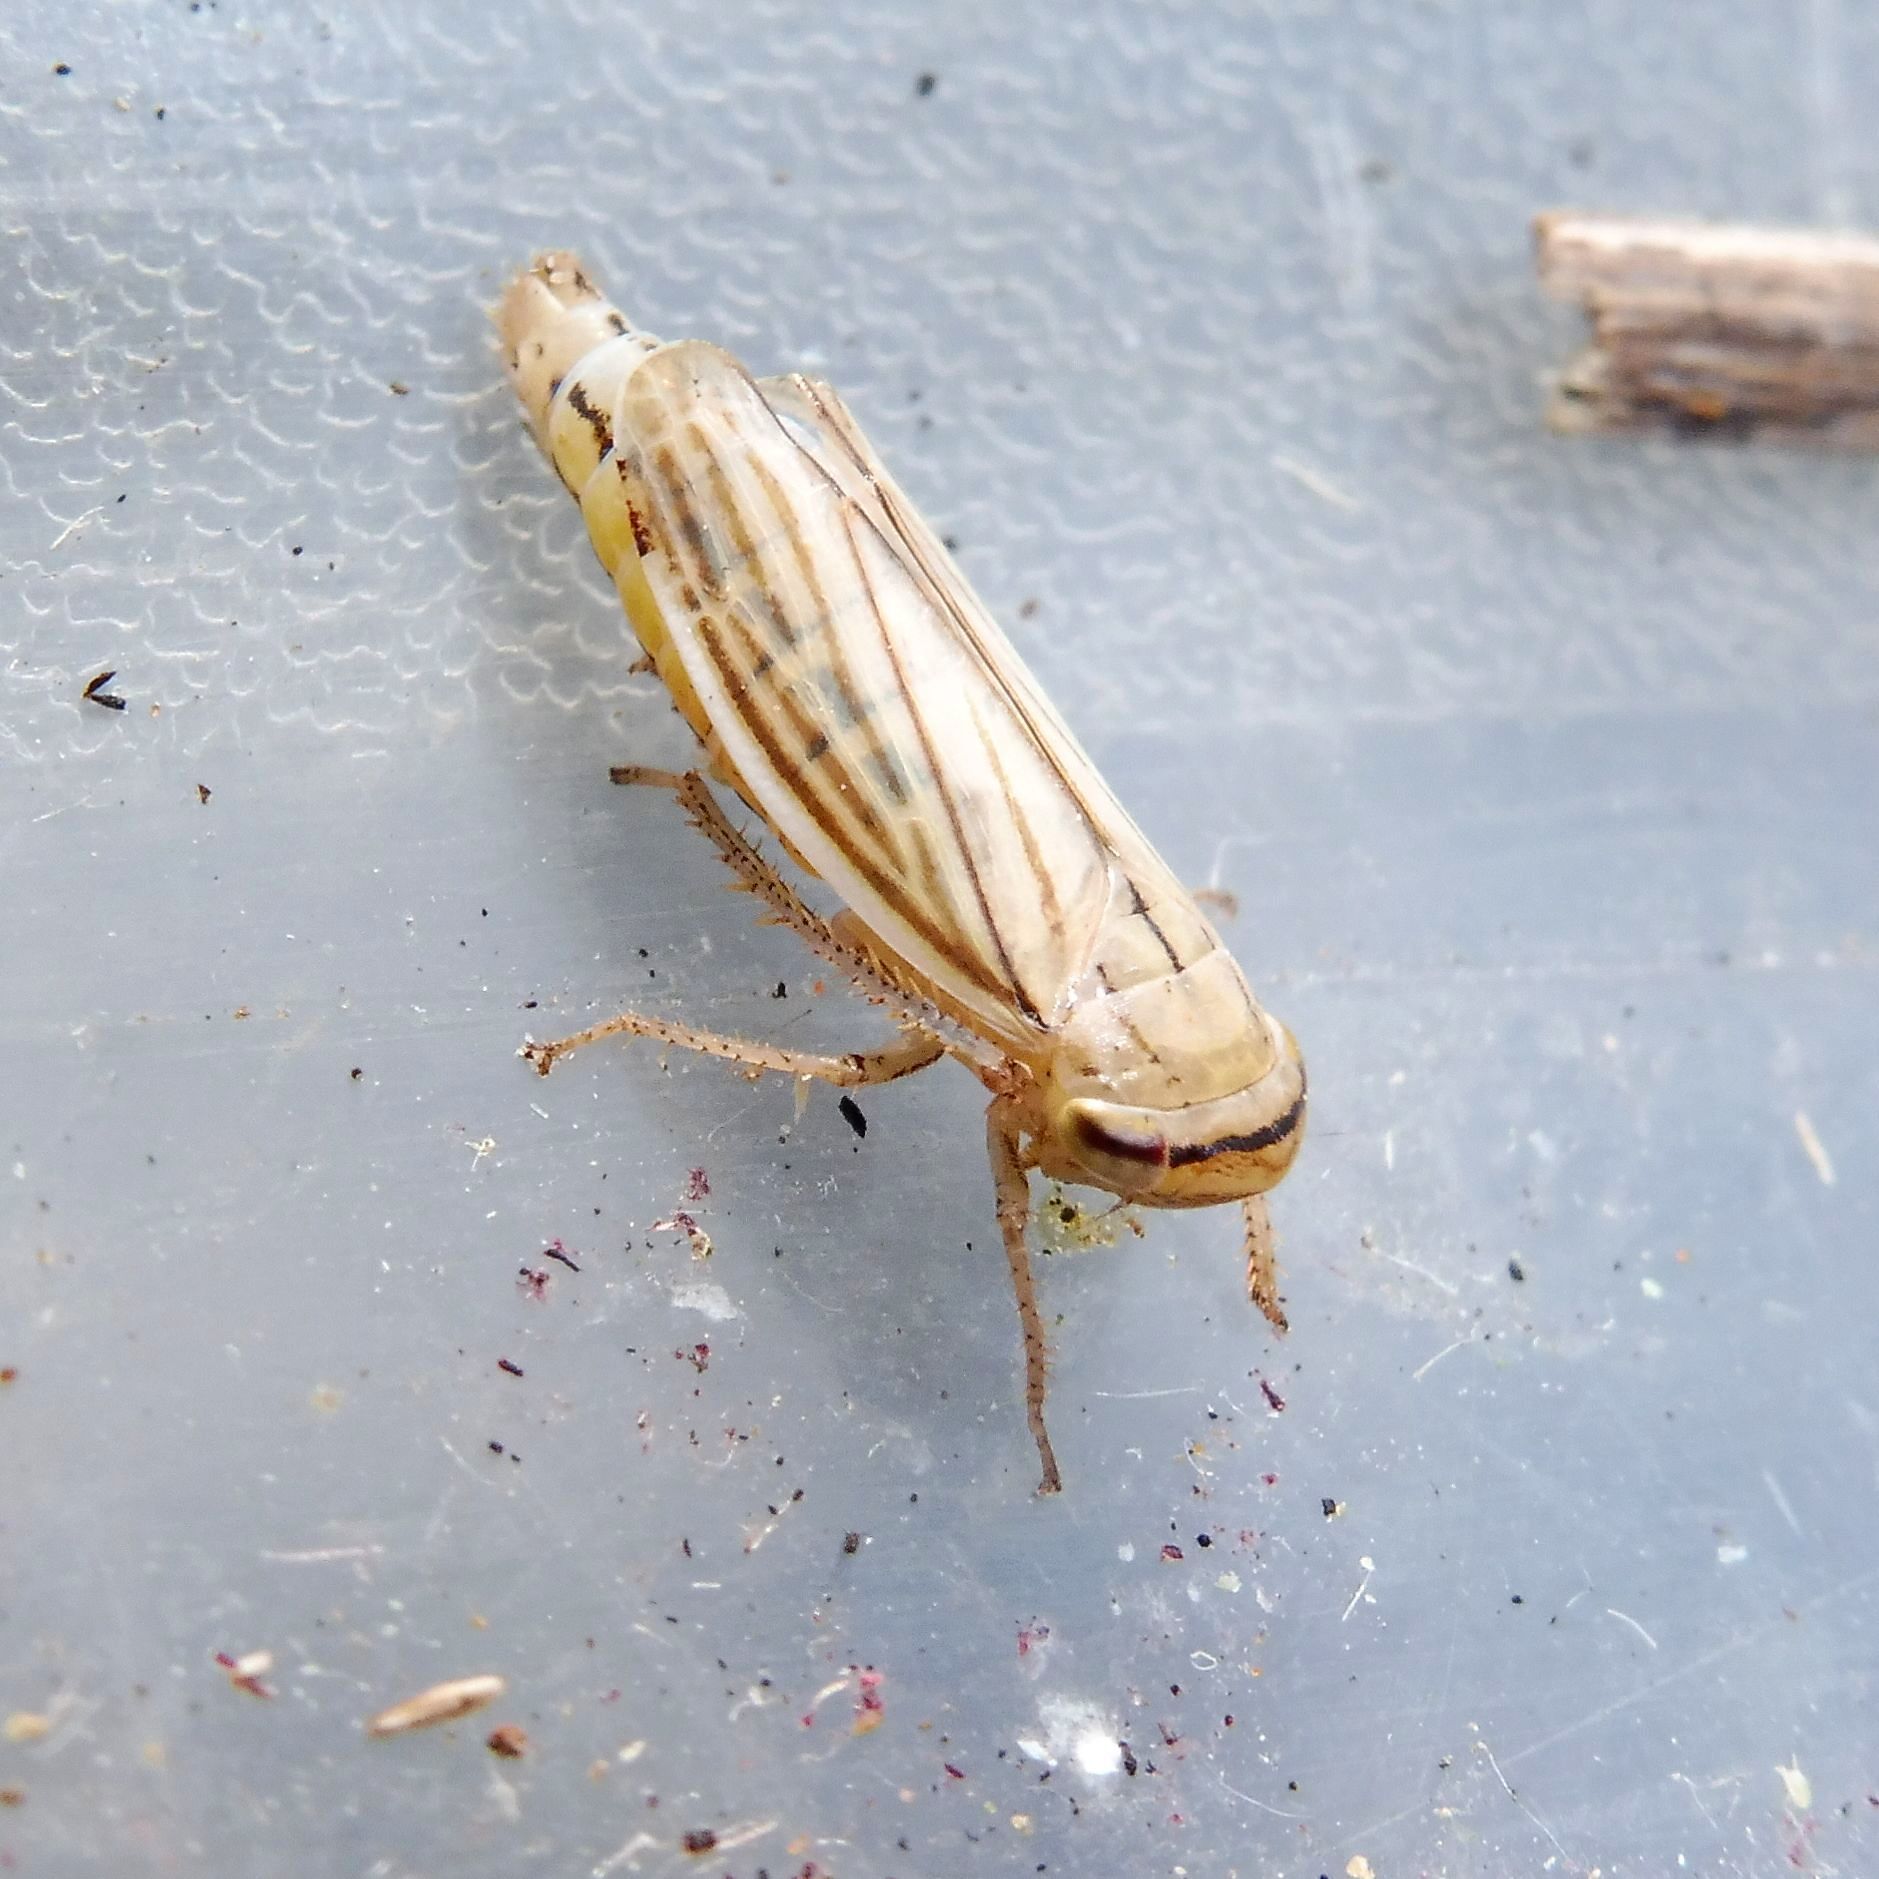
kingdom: Animalia
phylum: Arthropoda
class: Insecta
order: Hemiptera
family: Cicadellidae
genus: Athysanus
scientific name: Athysanus argentarius
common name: Silver leafhopper
